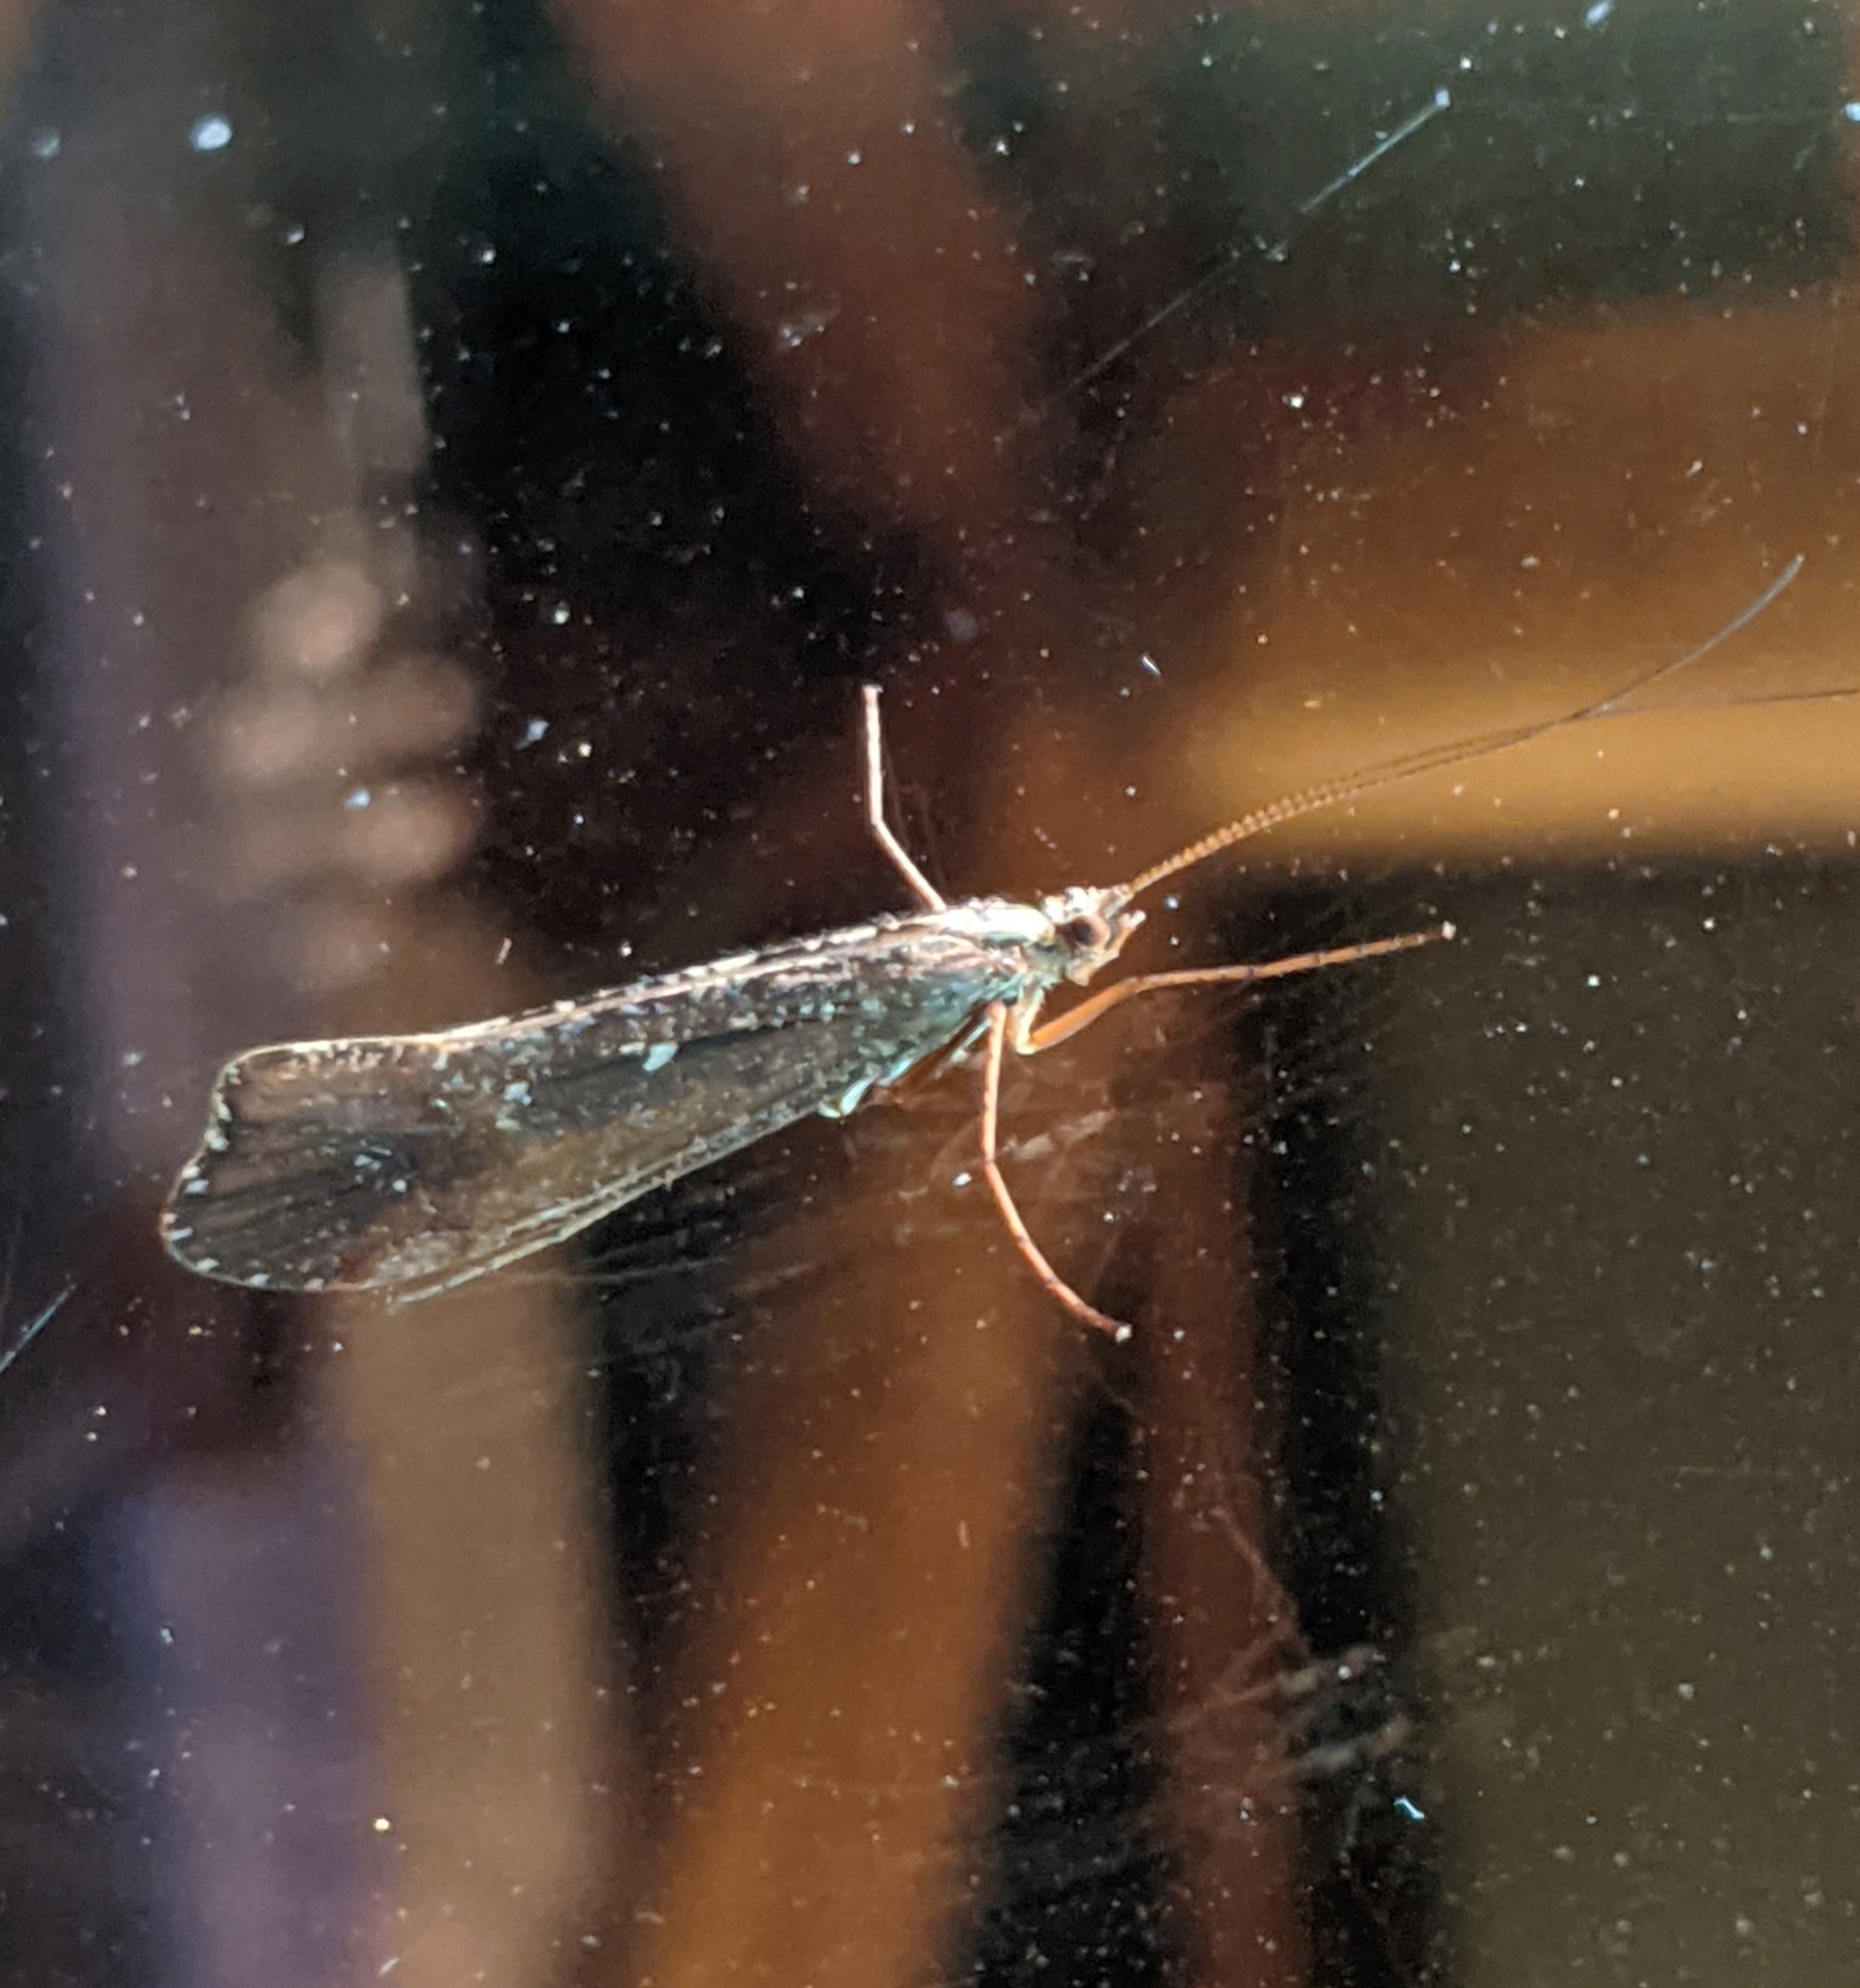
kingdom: Animalia
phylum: Arthropoda
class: Insecta
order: Trichoptera
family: Limnephilidae
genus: Glyphopsyche
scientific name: Glyphopsyche irrorata
